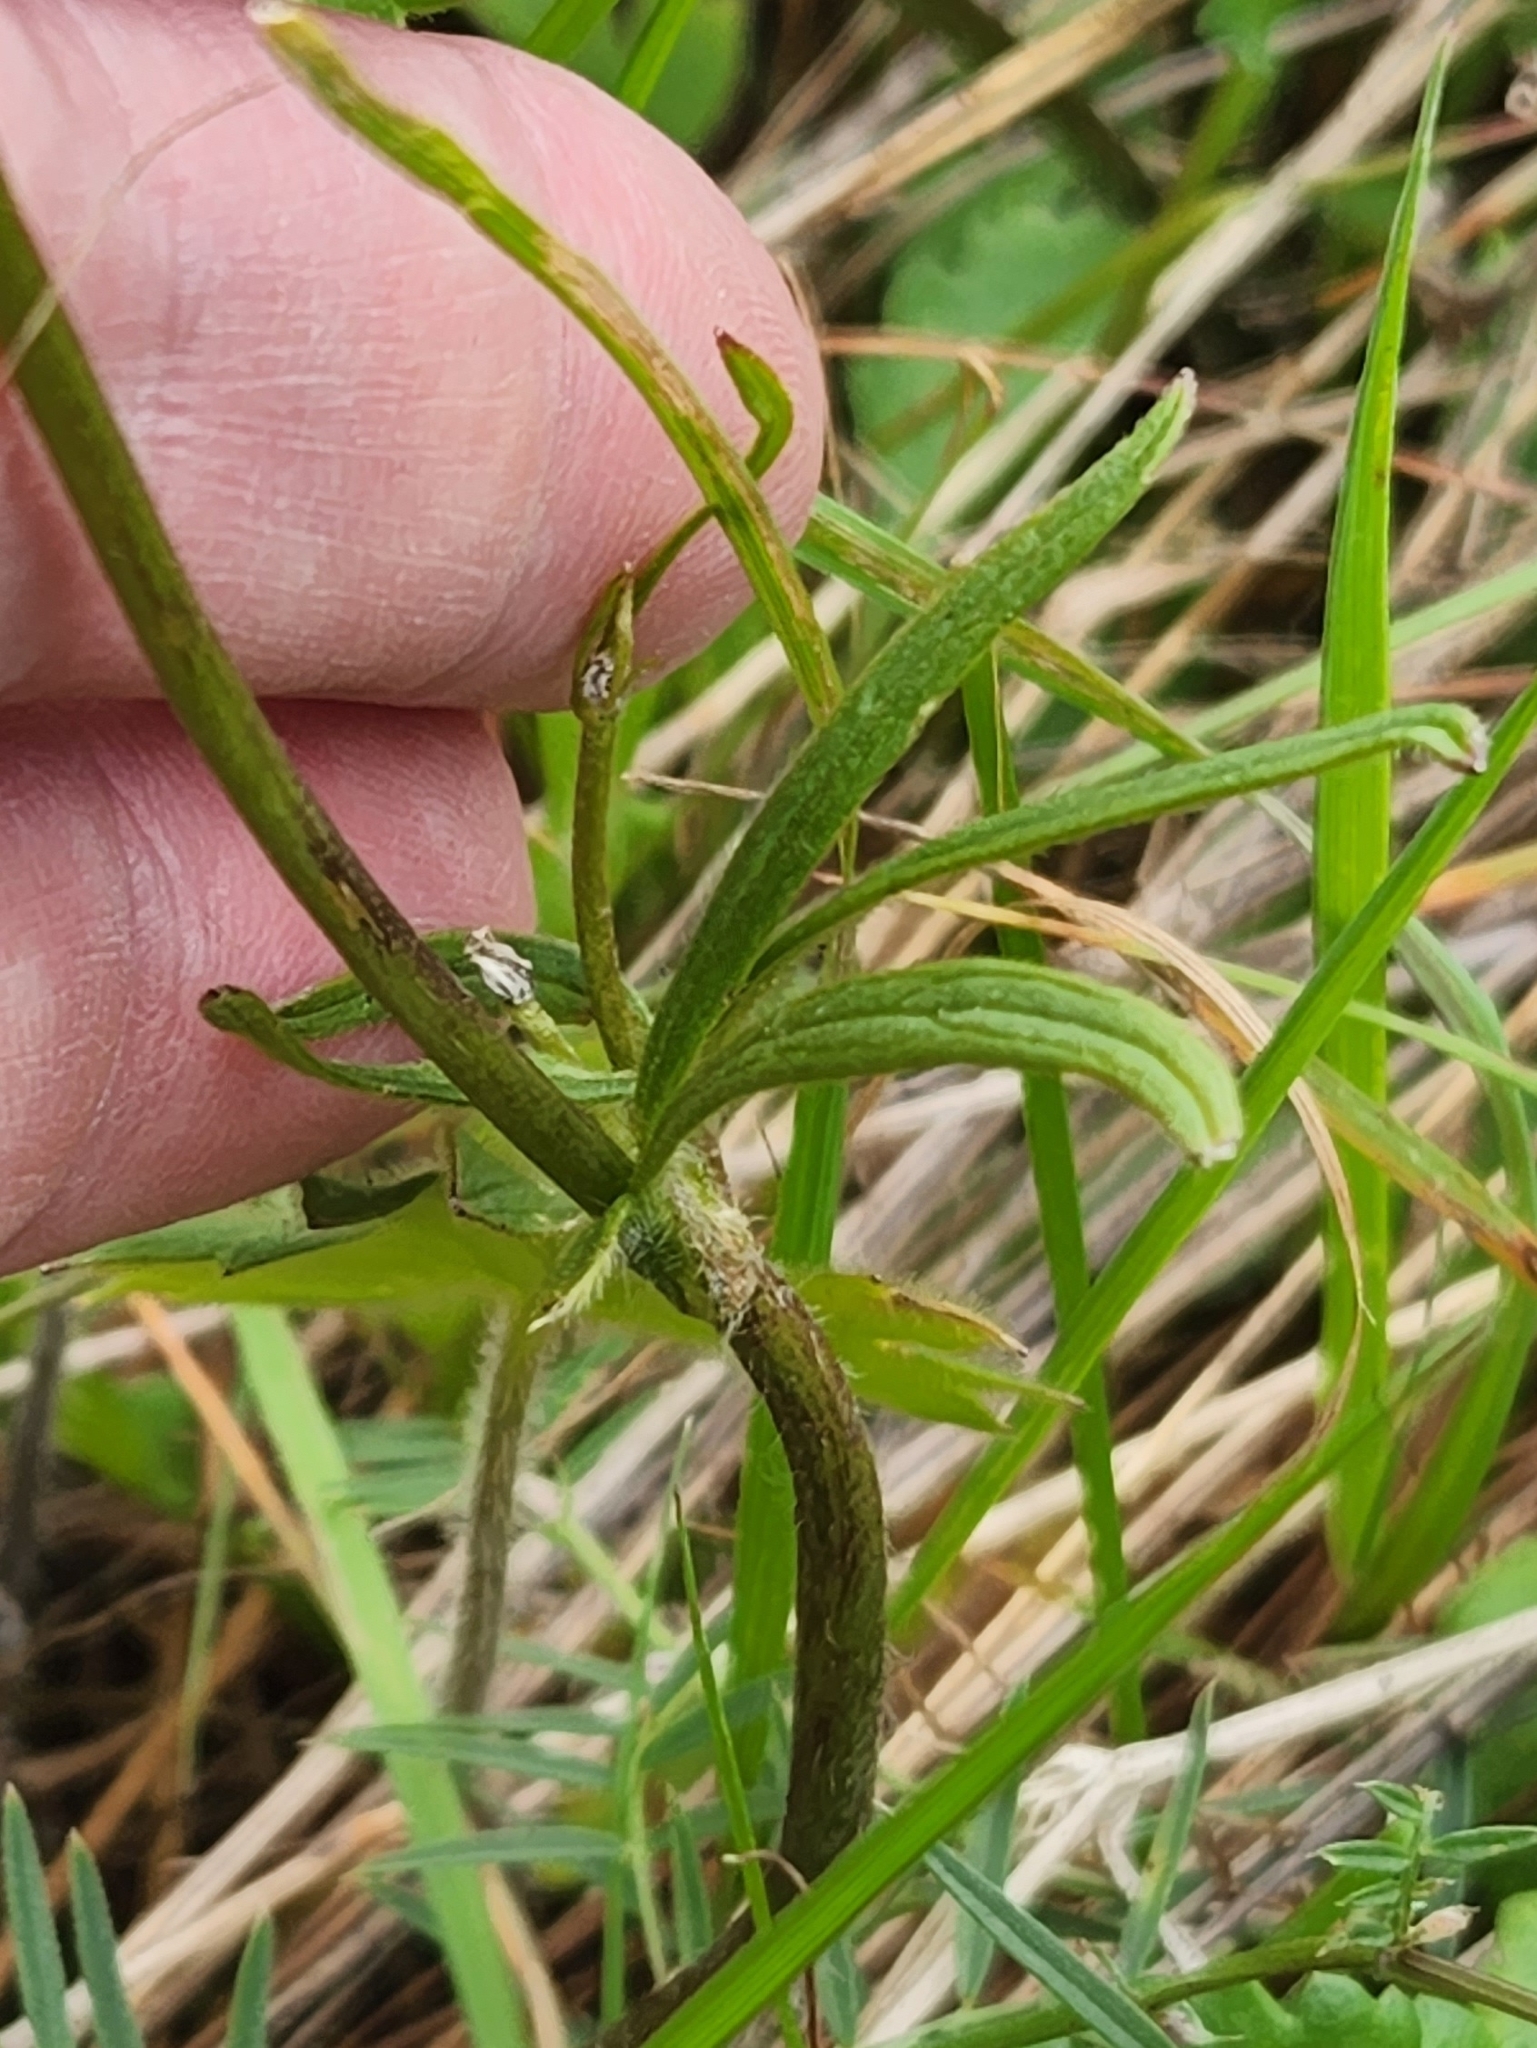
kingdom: Plantae
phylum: Tracheophyta
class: Magnoliopsida
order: Ranunculales
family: Ranunculaceae
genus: Ranunculus
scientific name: Ranunculus occidentalis
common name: Western buttercup
